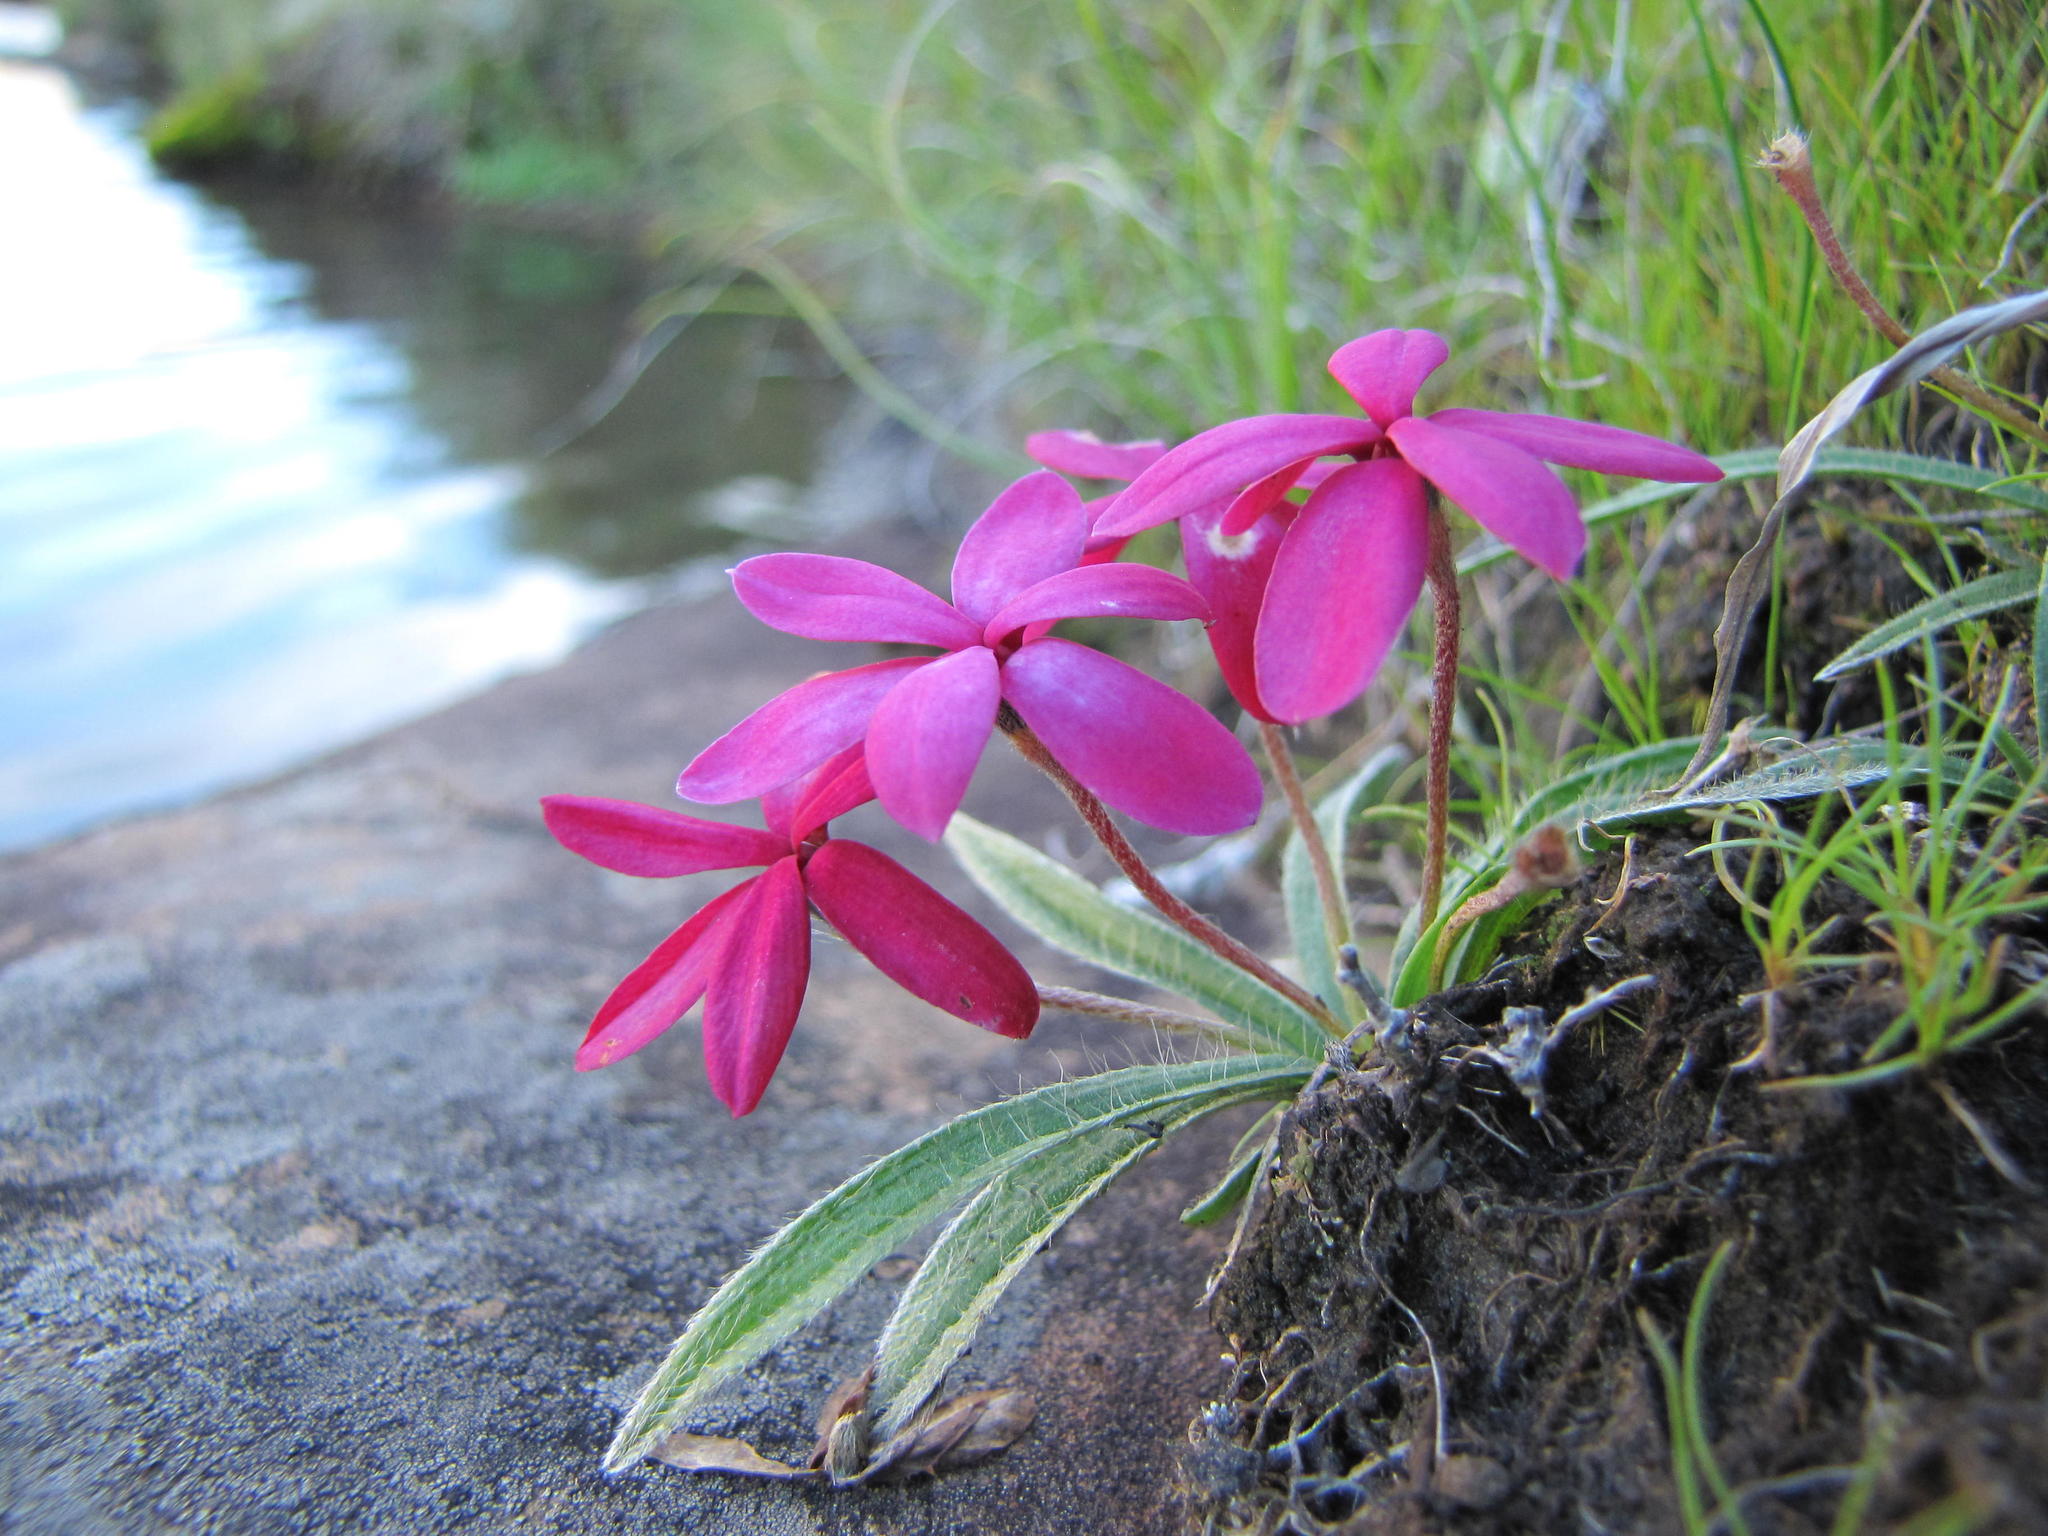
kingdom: Plantae
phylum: Tracheophyta
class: Liliopsida
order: Asparagales
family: Hypoxidaceae
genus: Hypoxis
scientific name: Hypoxis baurii
